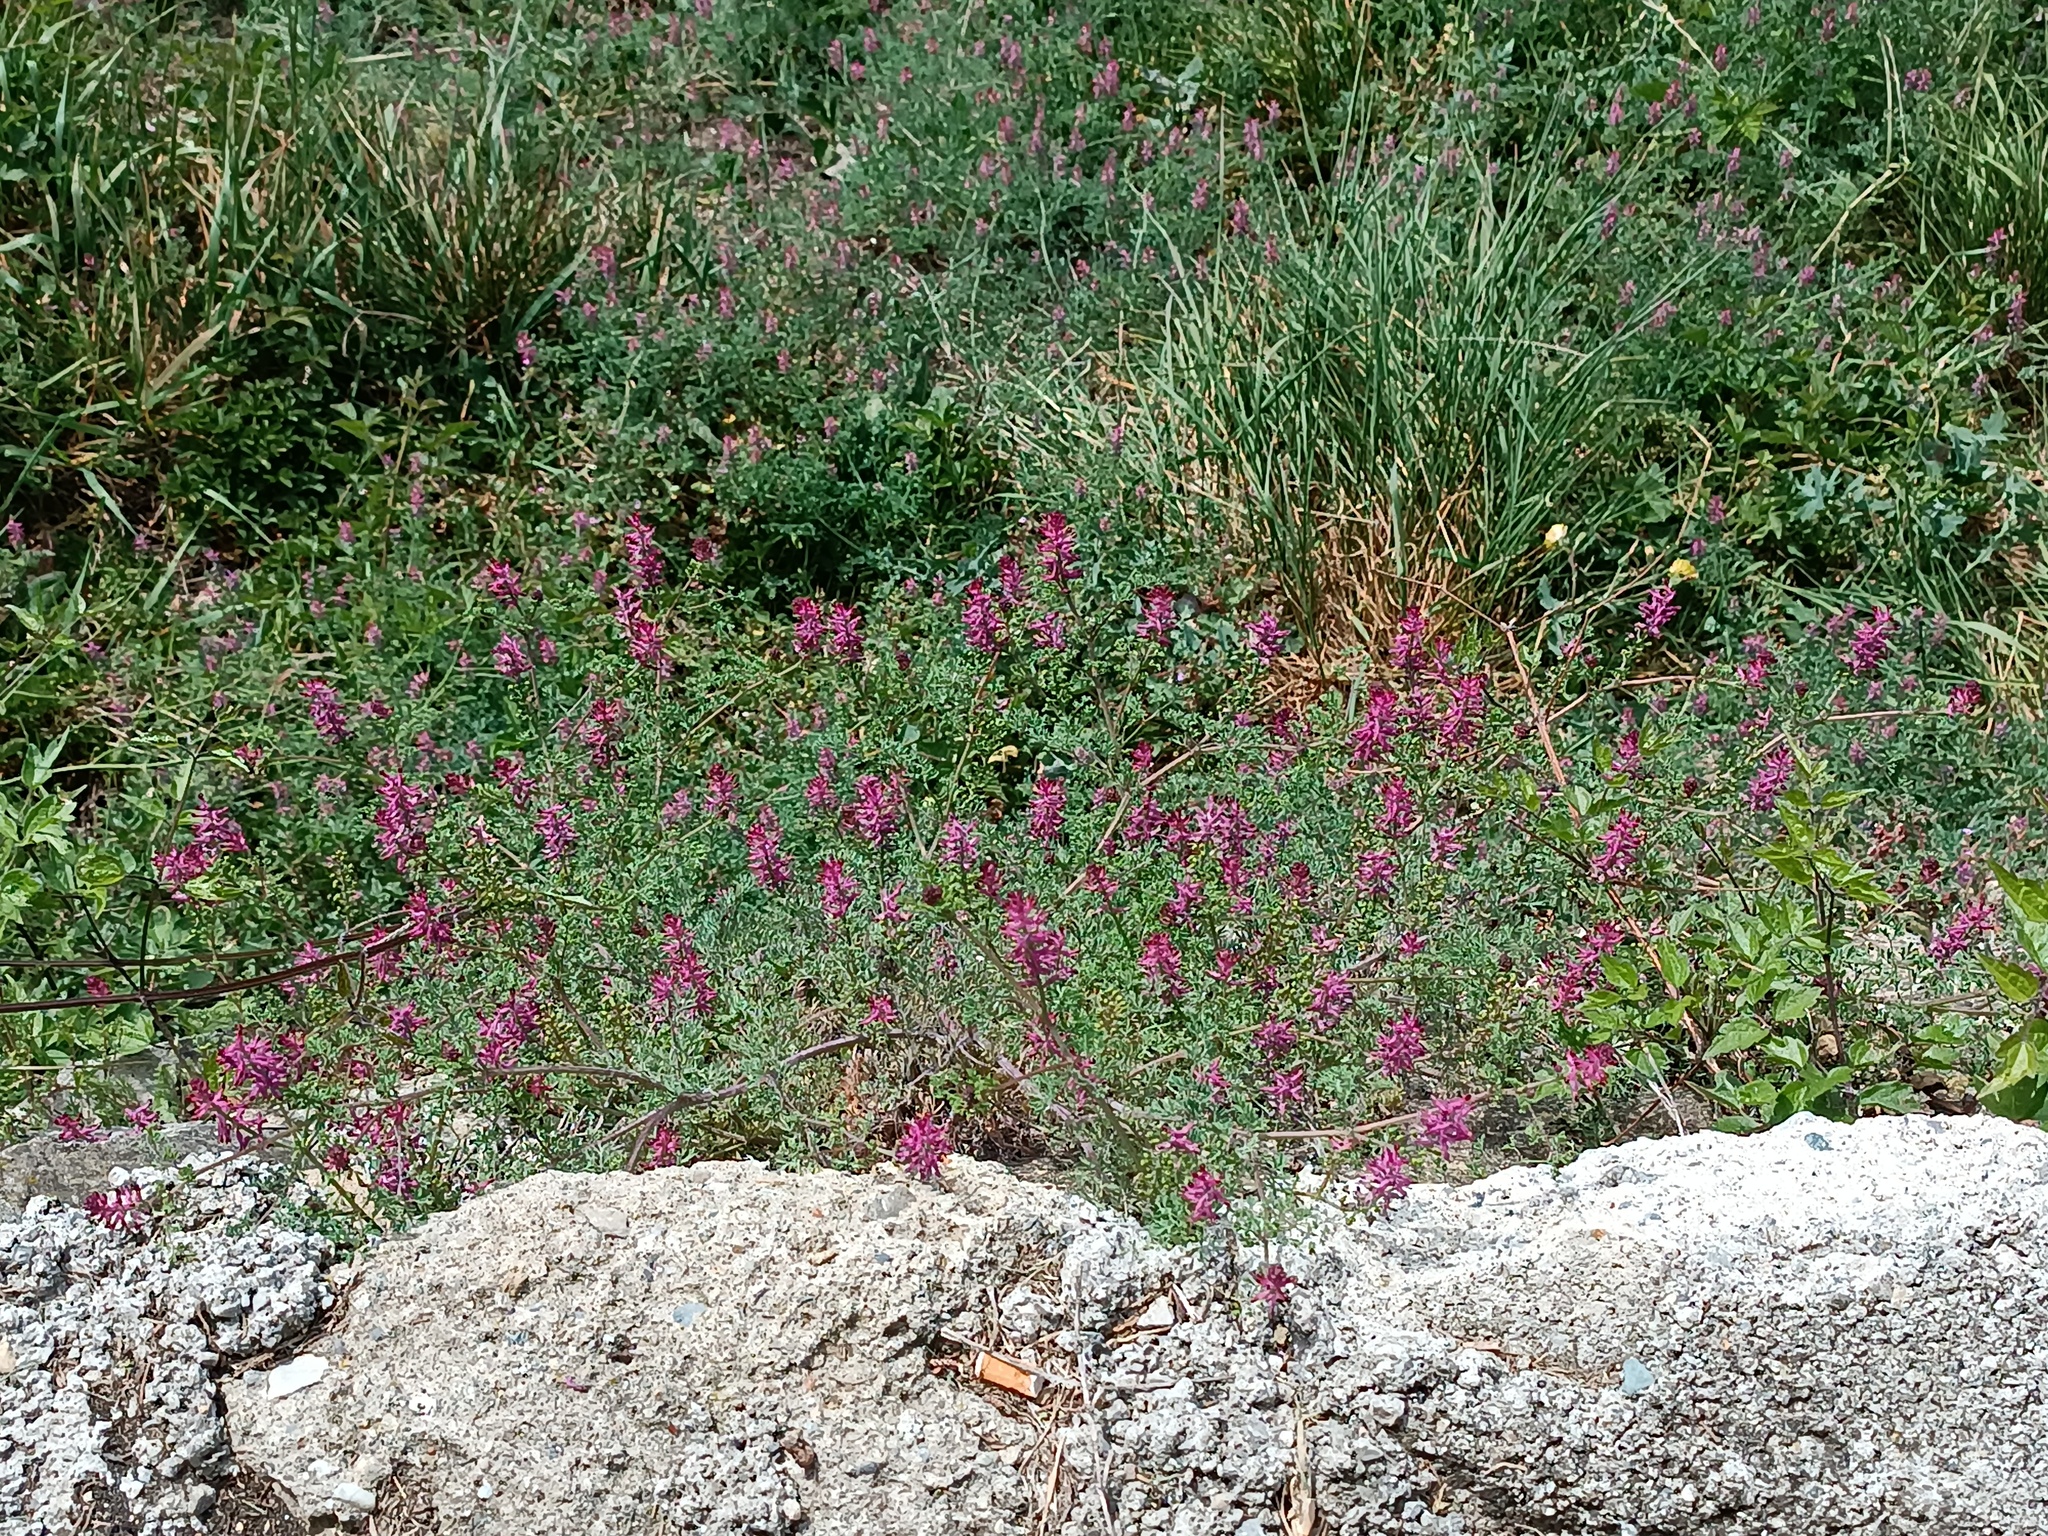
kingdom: Plantae
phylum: Tracheophyta
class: Magnoliopsida
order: Ranunculales
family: Papaveraceae
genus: Fumaria
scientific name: Fumaria officinalis
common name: Common fumitory
